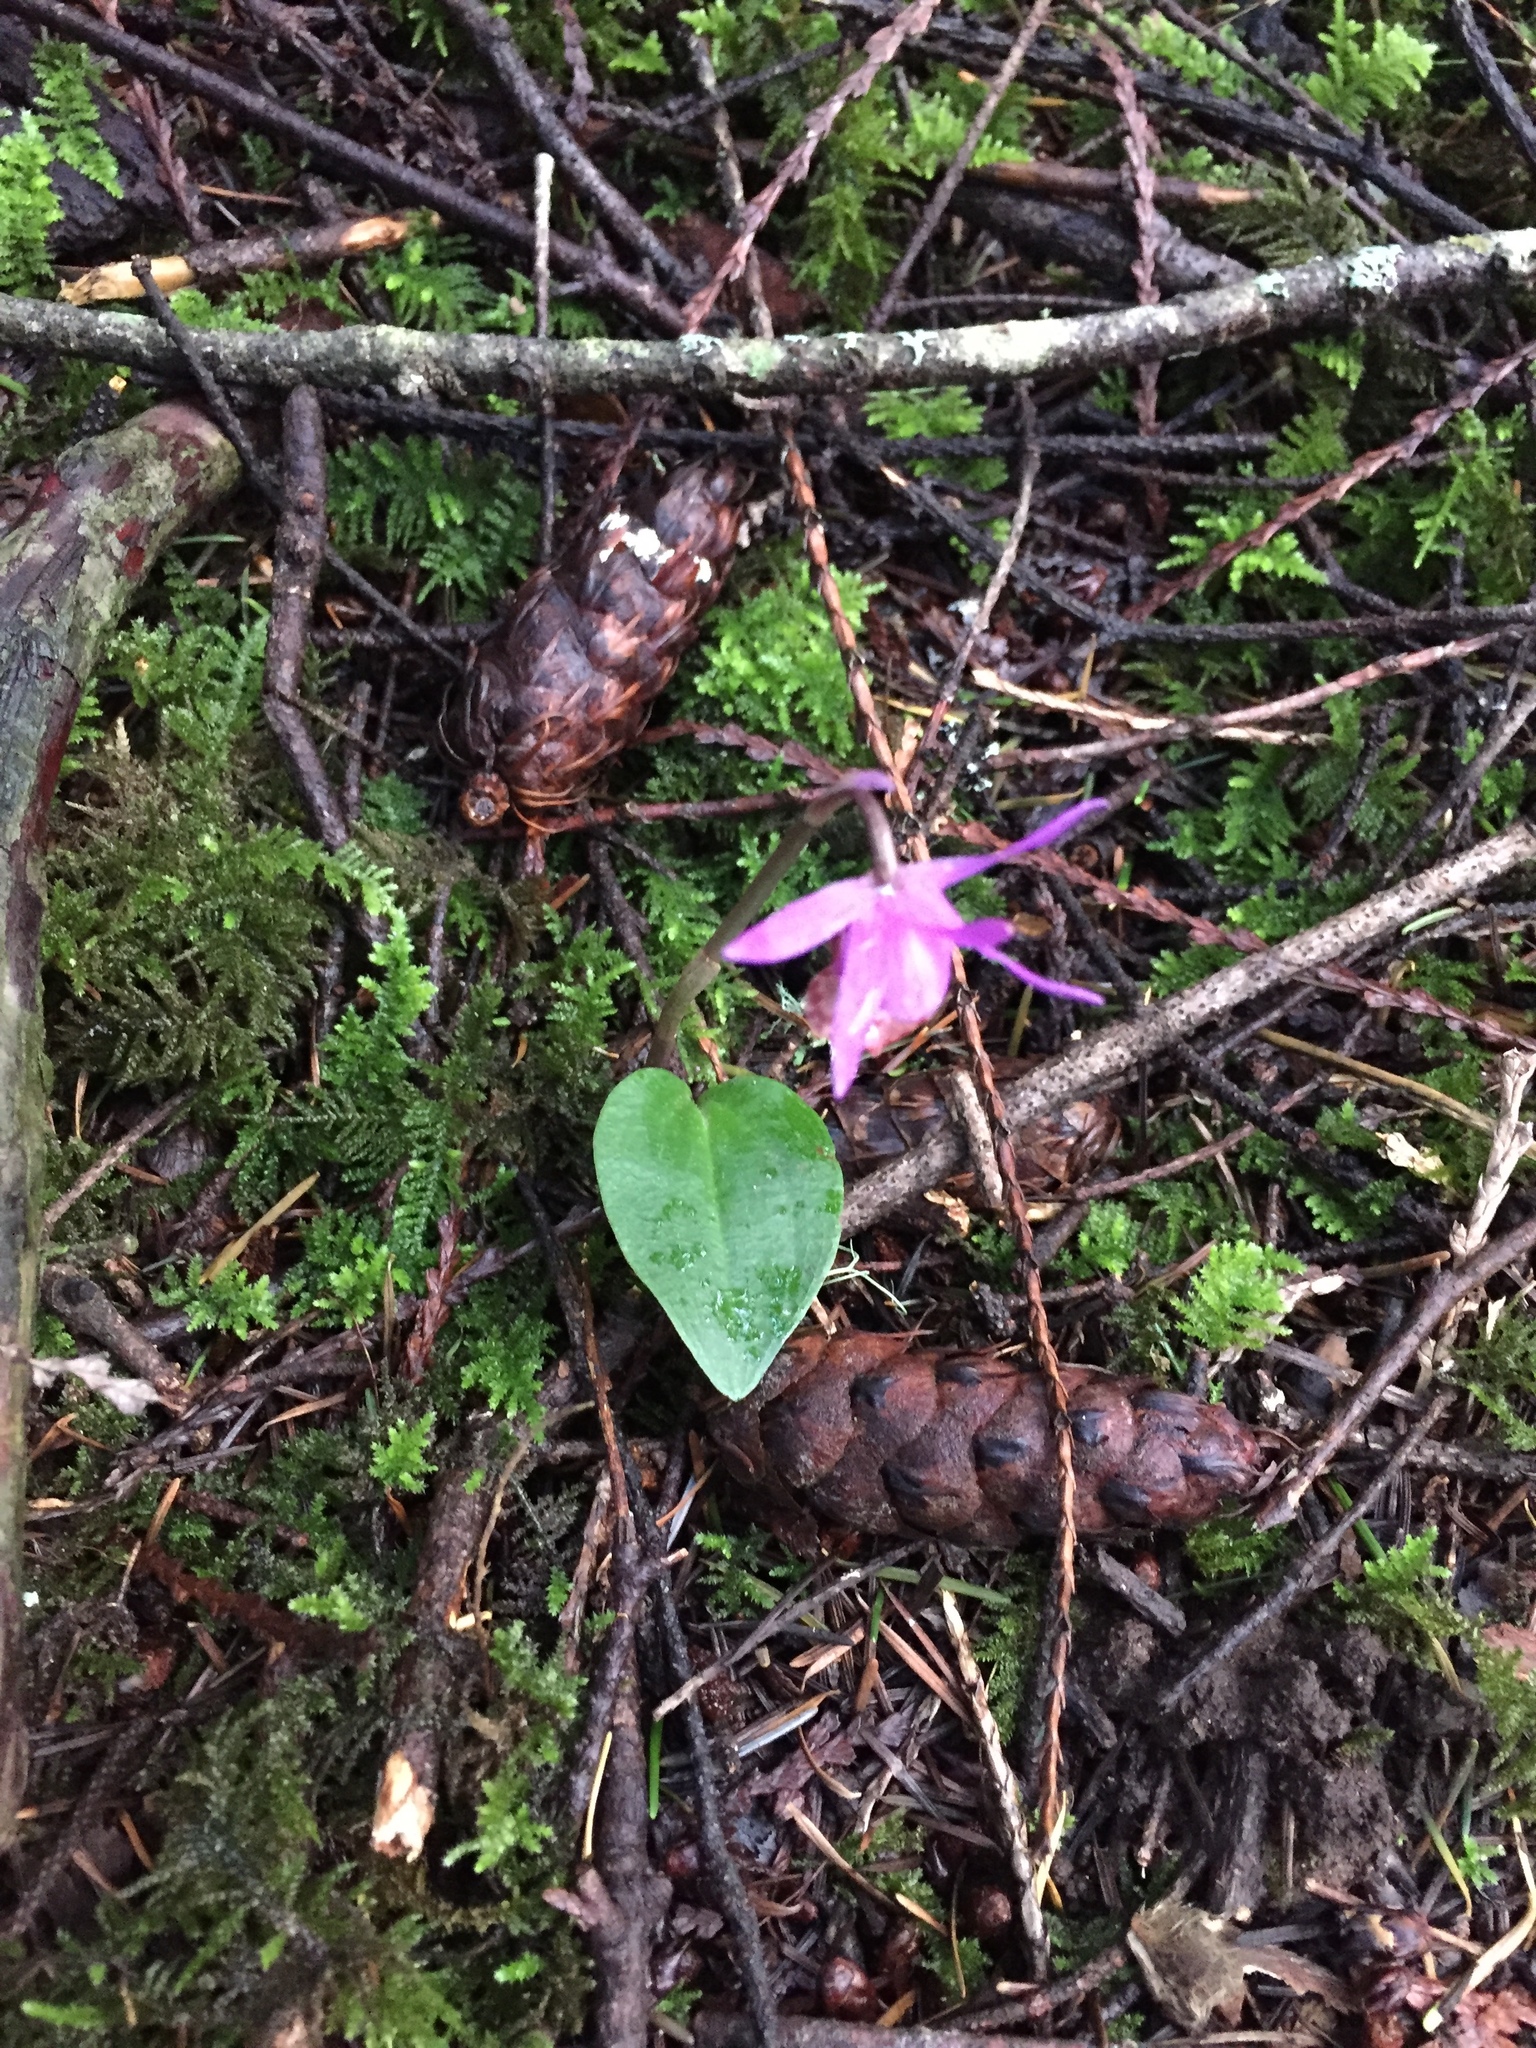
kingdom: Plantae
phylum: Tracheophyta
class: Liliopsida
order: Asparagales
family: Orchidaceae
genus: Calypso
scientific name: Calypso bulbosa
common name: Calypso
